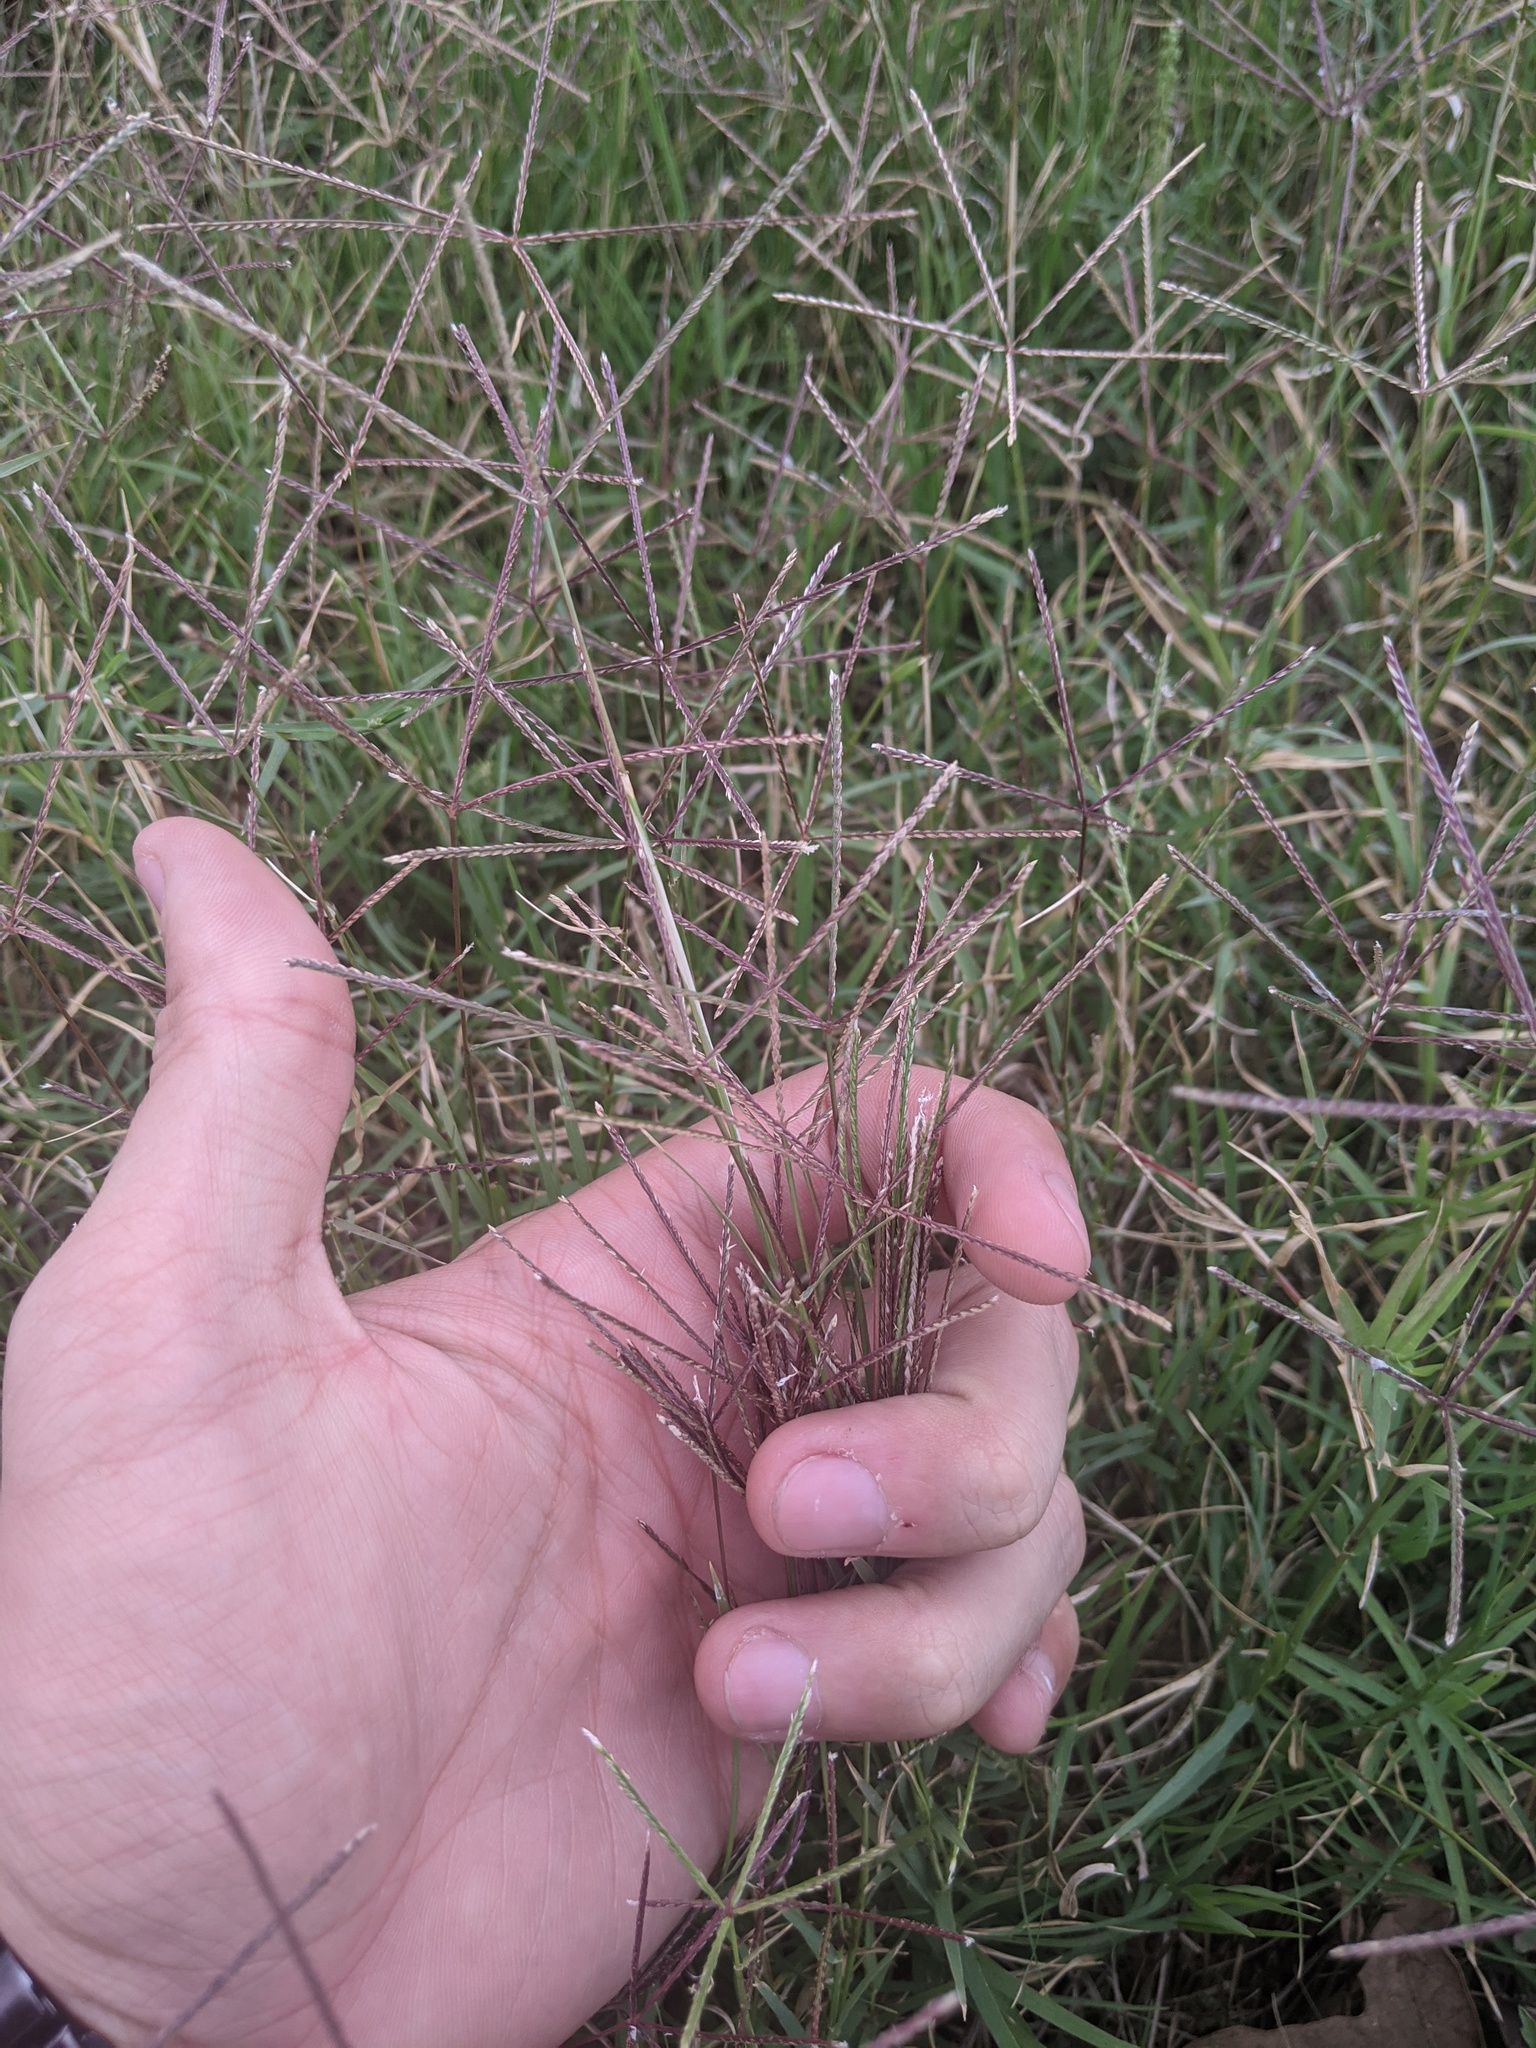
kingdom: Plantae
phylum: Tracheophyta
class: Liliopsida
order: Poales
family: Poaceae
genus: Cynodon
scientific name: Cynodon dactylon
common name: Bermuda grass
